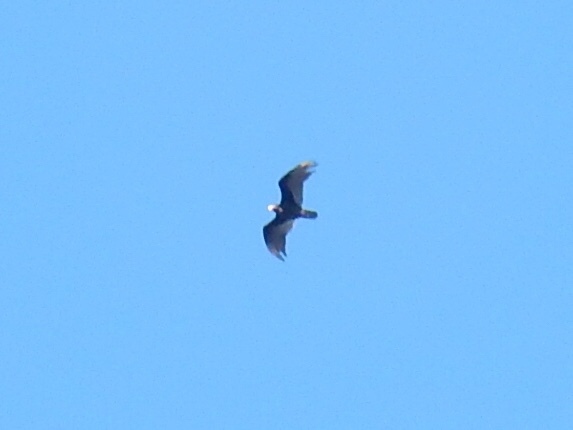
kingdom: Animalia
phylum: Chordata
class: Aves
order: Accipitriformes
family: Cathartidae
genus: Cathartes
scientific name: Cathartes aura
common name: Turkey vulture
